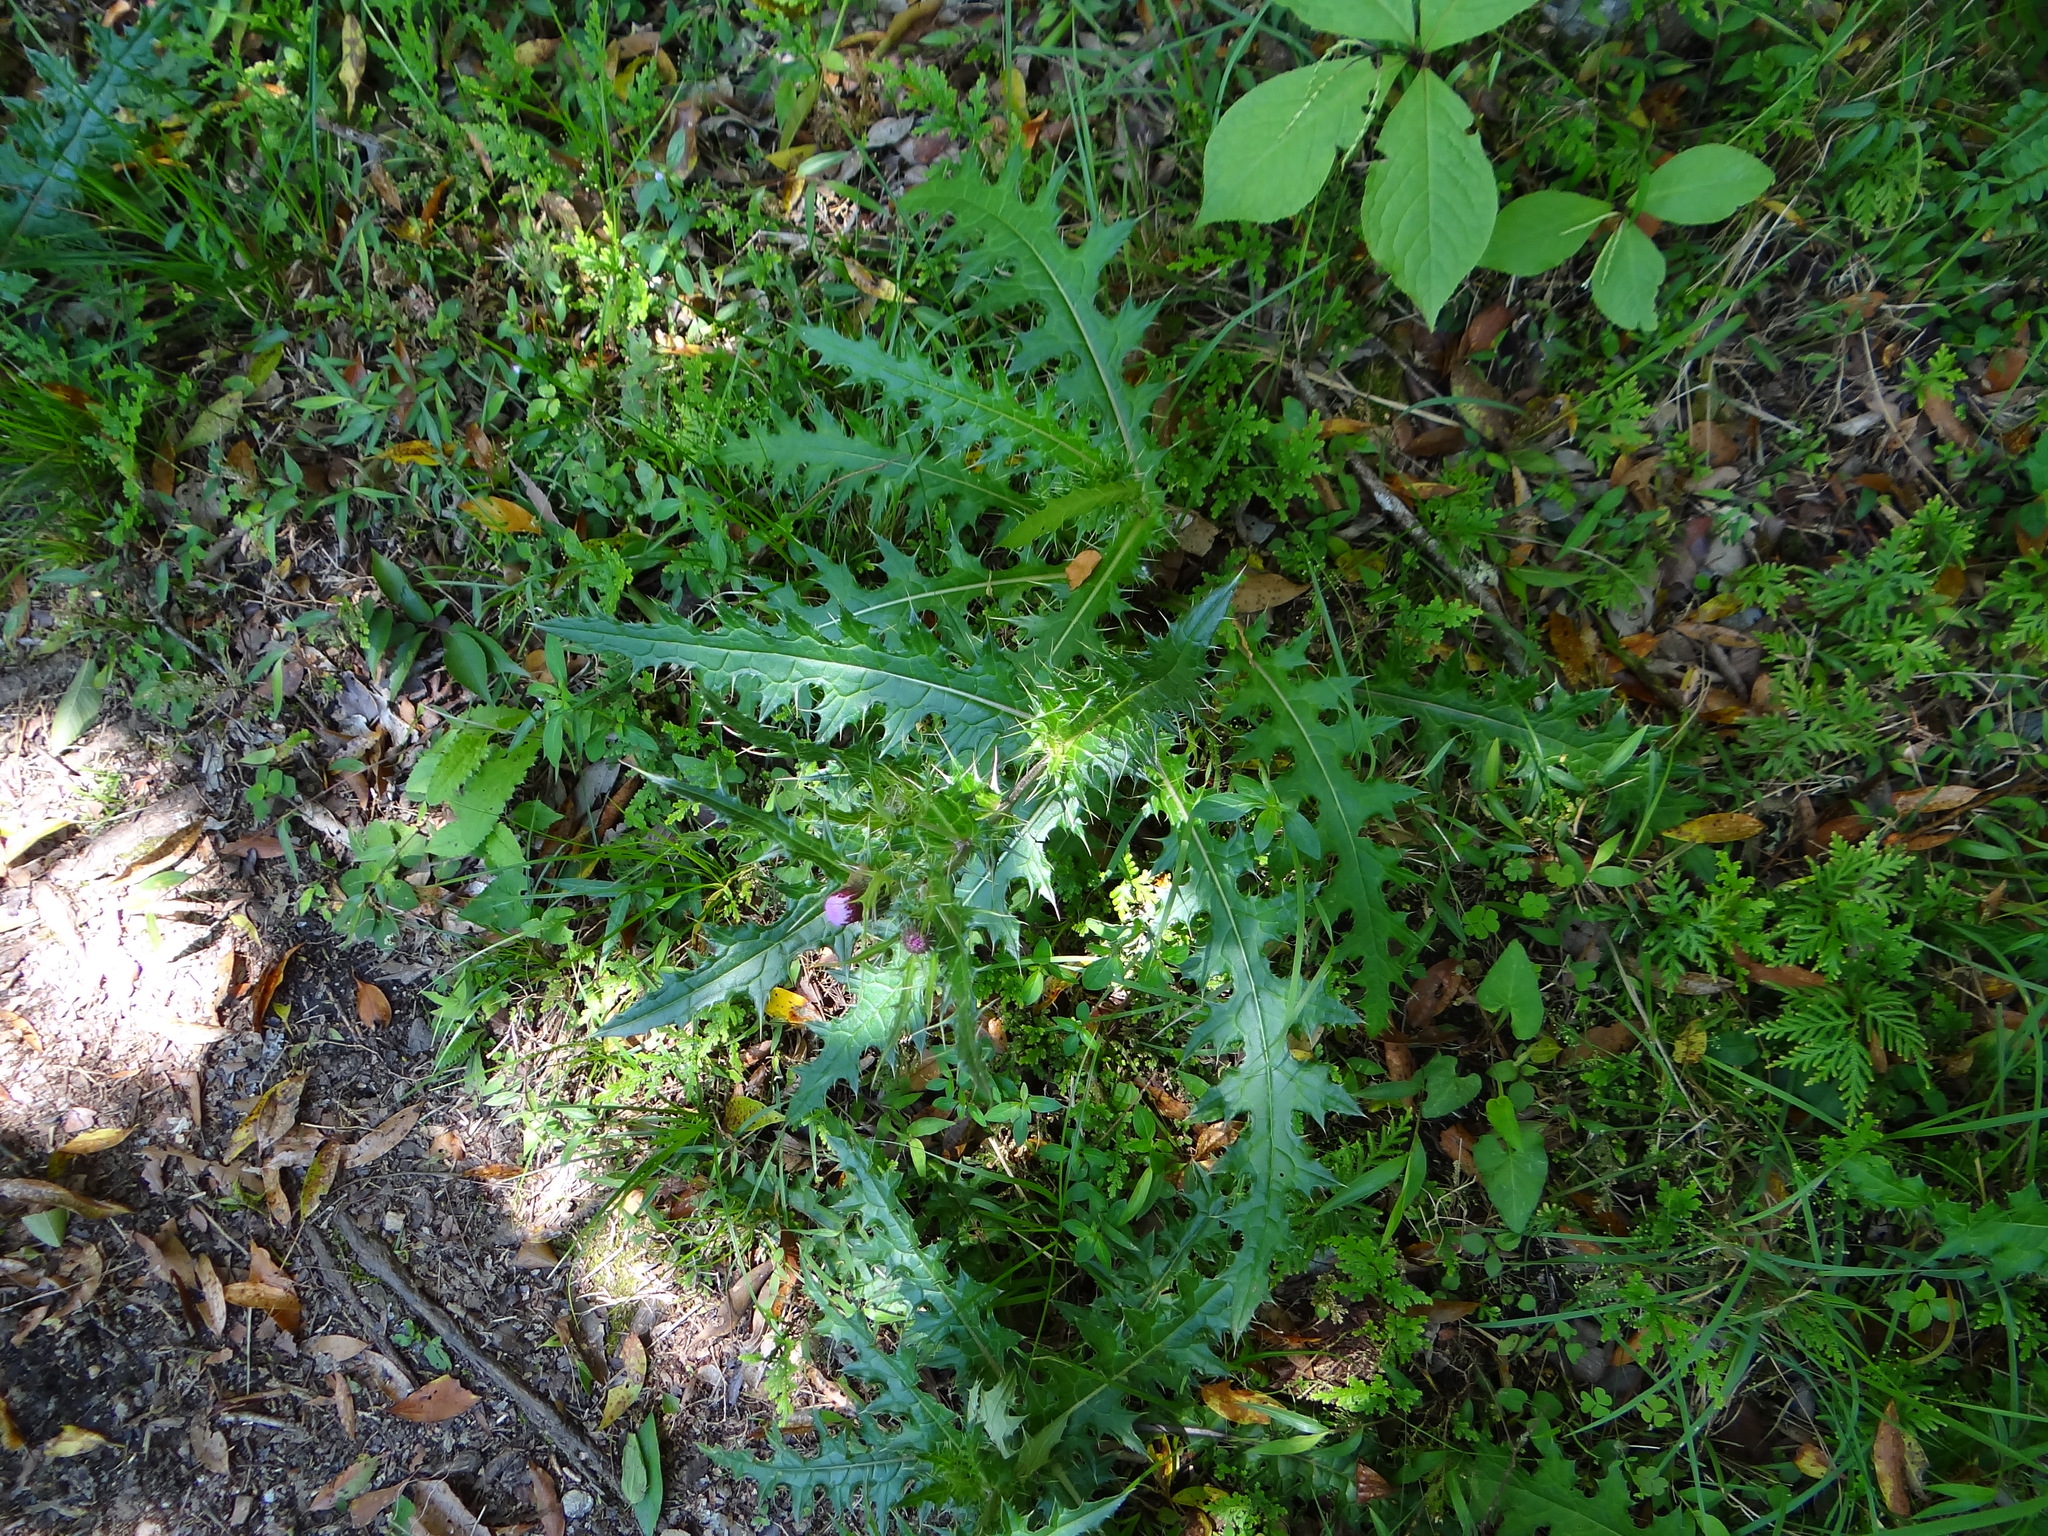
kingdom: Plantae
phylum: Tracheophyta
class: Magnoliopsida
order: Asterales
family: Asteraceae
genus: Cirsium
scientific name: Cirsium japonicum
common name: Japanese thistle
